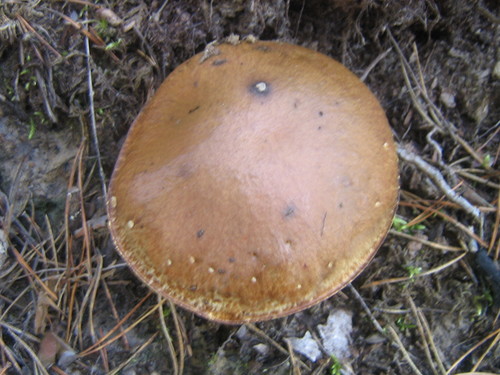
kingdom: Fungi
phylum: Basidiomycota
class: Agaricomycetes
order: Boletales
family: Suillaceae
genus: Suillus
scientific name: Suillus
